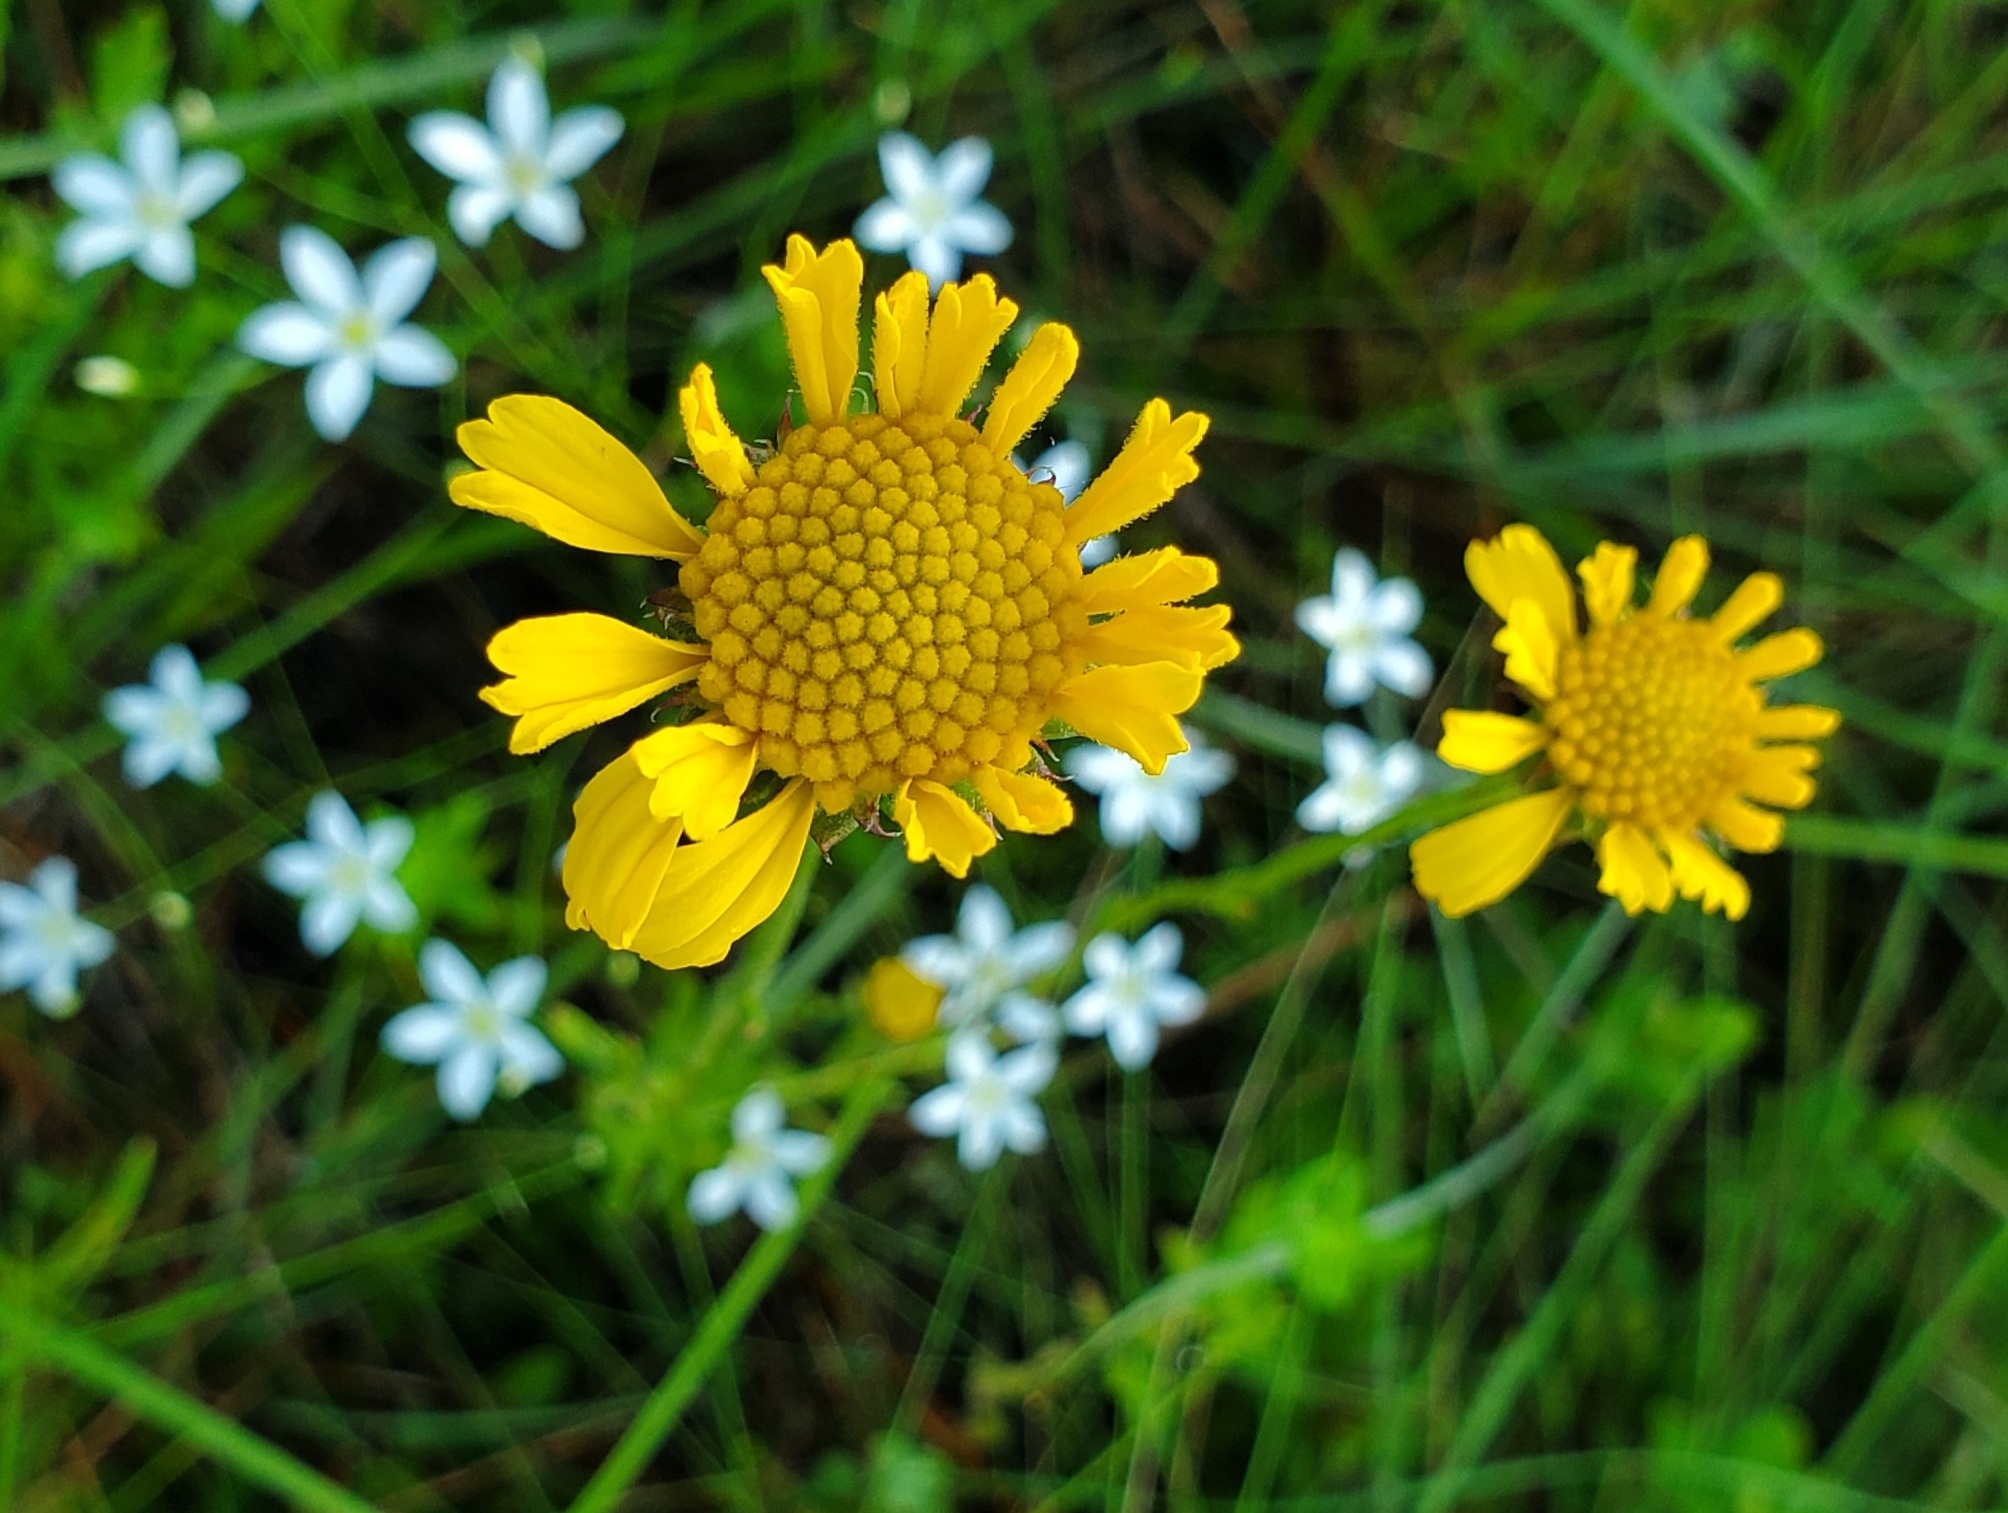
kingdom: Plantae
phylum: Tracheophyta
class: Magnoliopsida
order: Asterales
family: Asteraceae
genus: Balduina
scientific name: Balduina uniflora
